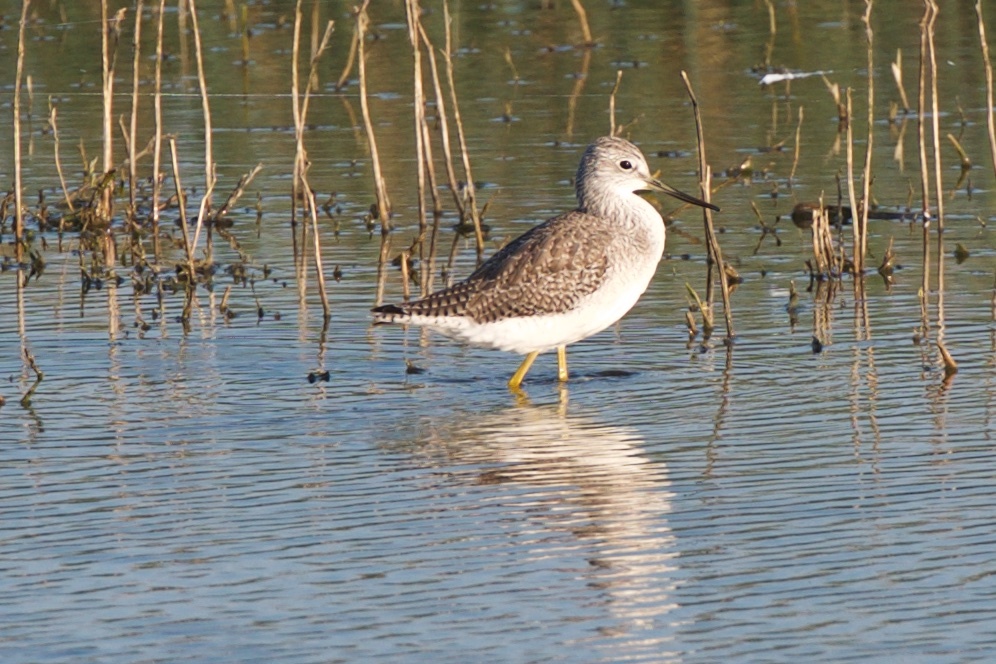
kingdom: Animalia
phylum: Chordata
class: Aves
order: Charadriiformes
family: Scolopacidae
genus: Tringa
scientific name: Tringa melanoleuca
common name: Greater yellowlegs
